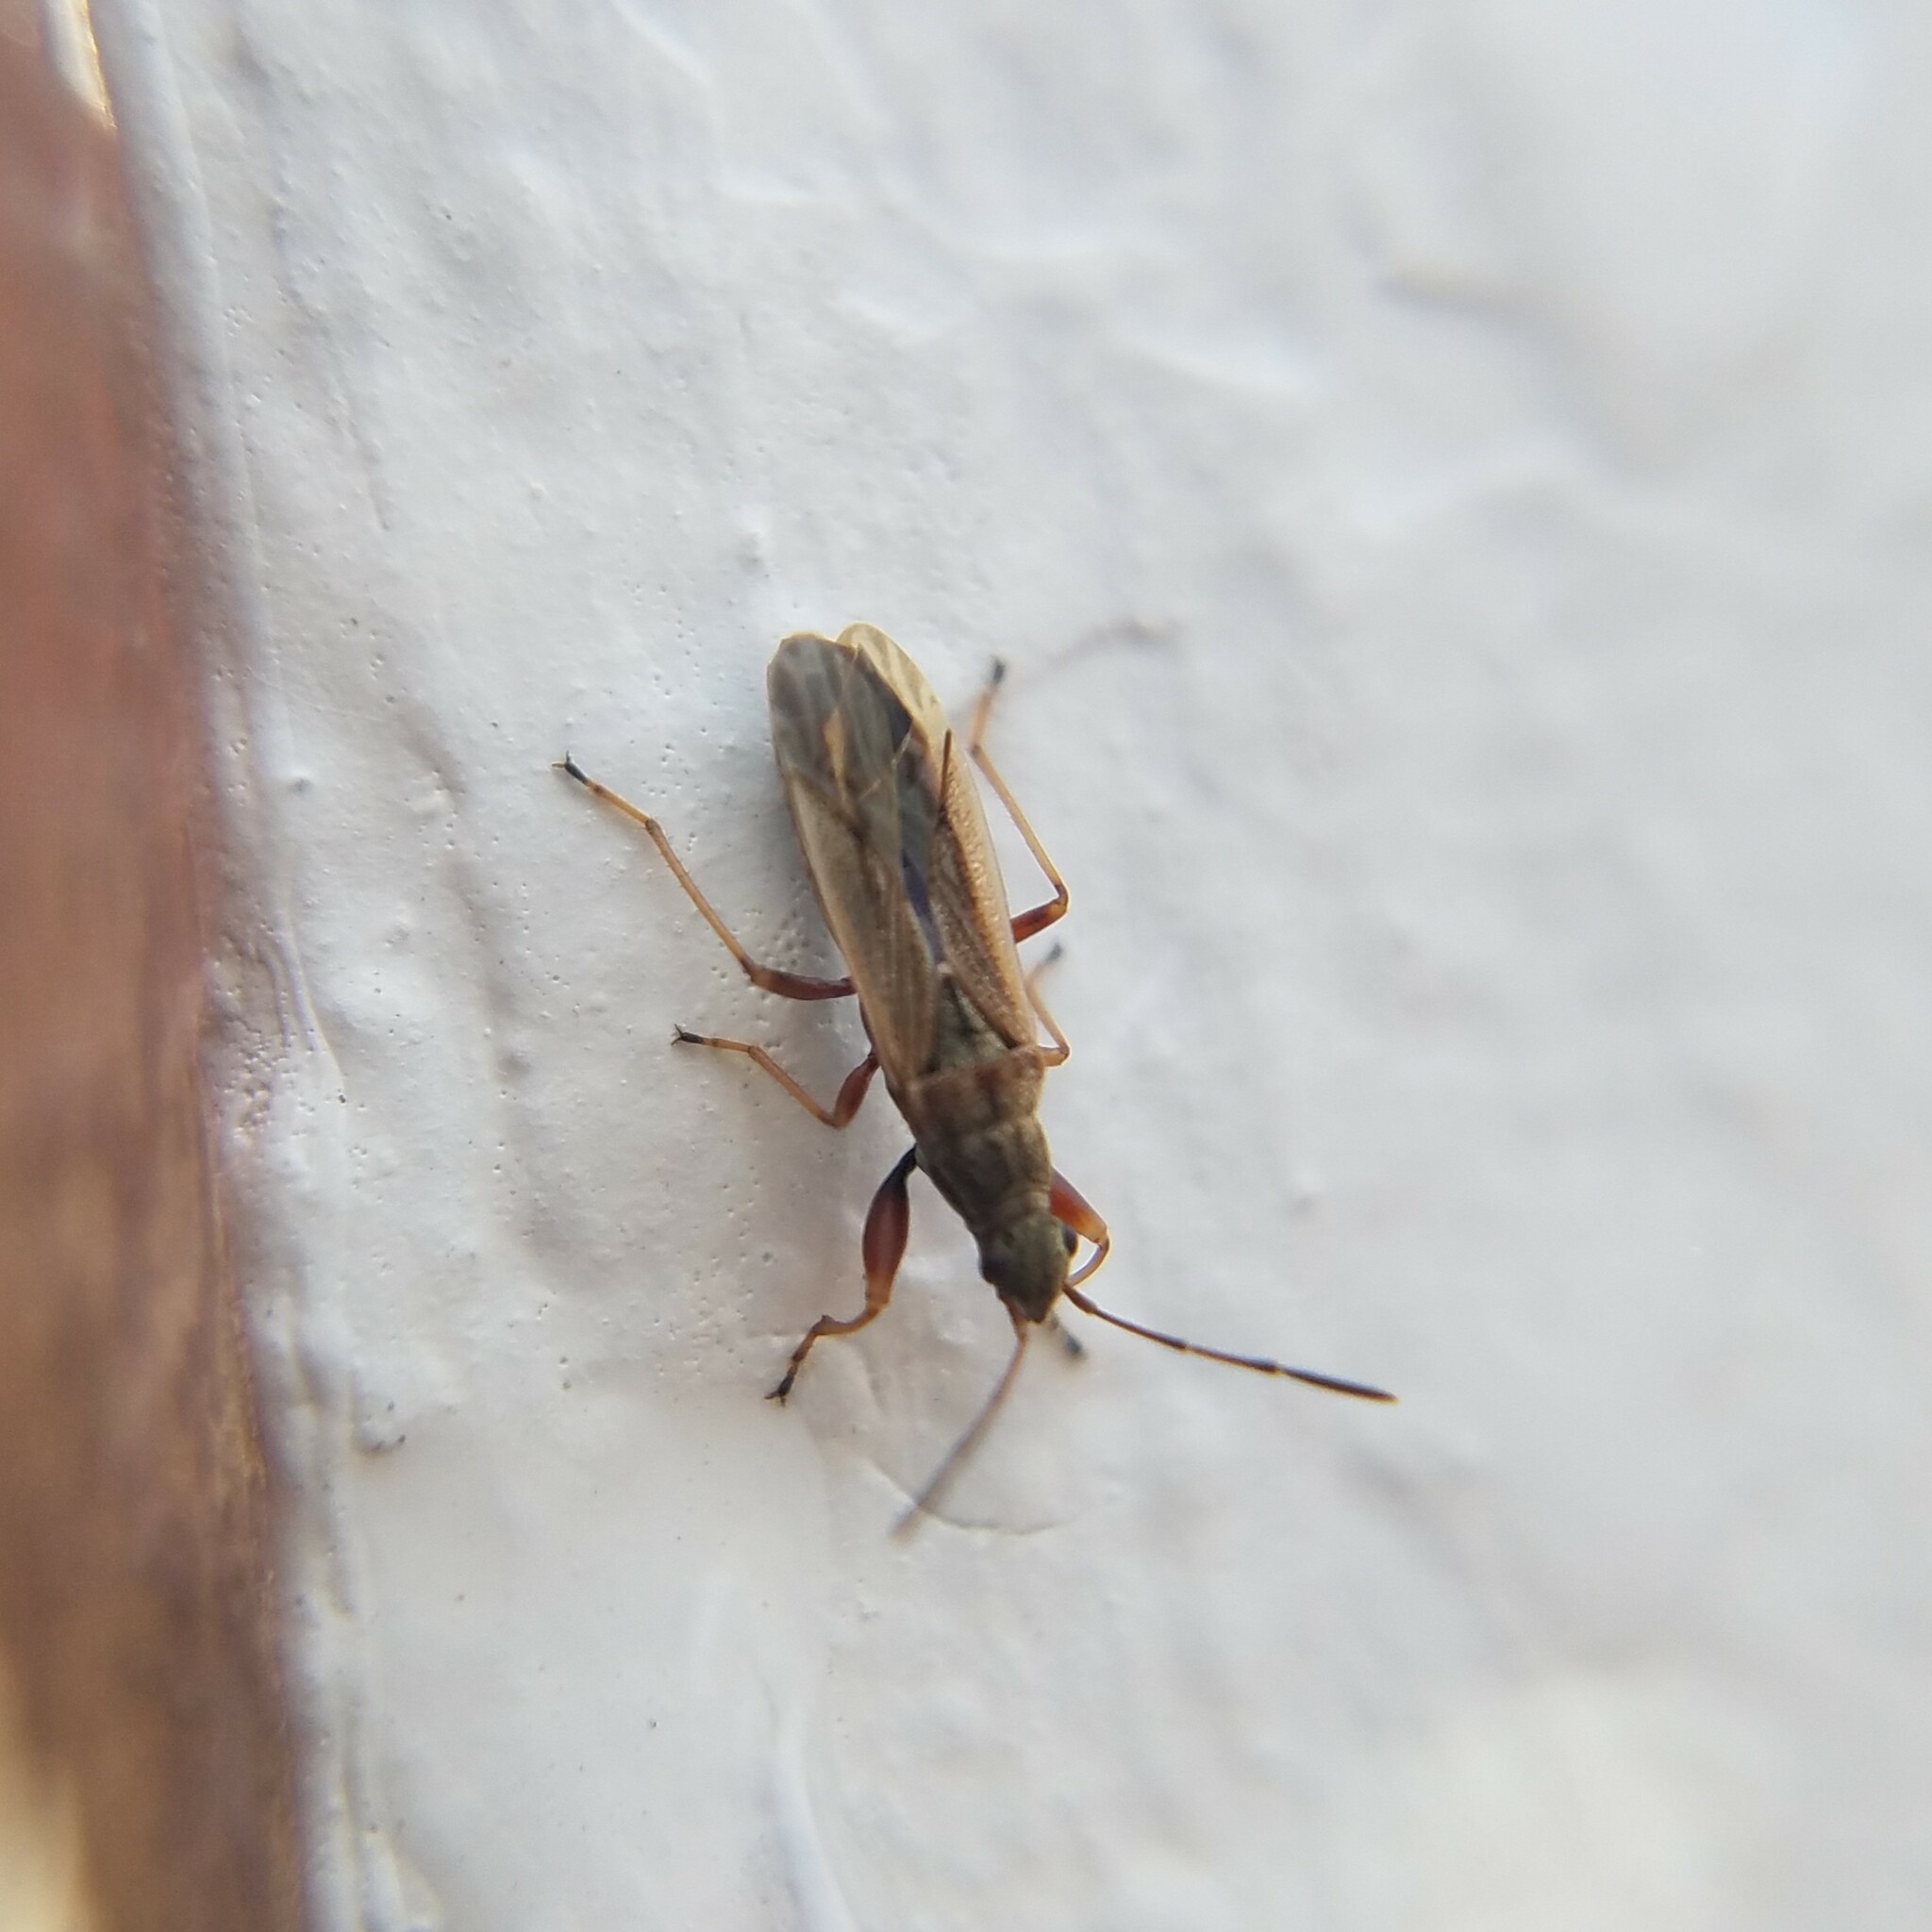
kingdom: Animalia
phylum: Arthropoda
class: Insecta
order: Hemiptera
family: Rhyparochromidae
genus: Paromius
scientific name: Paromius longulus
